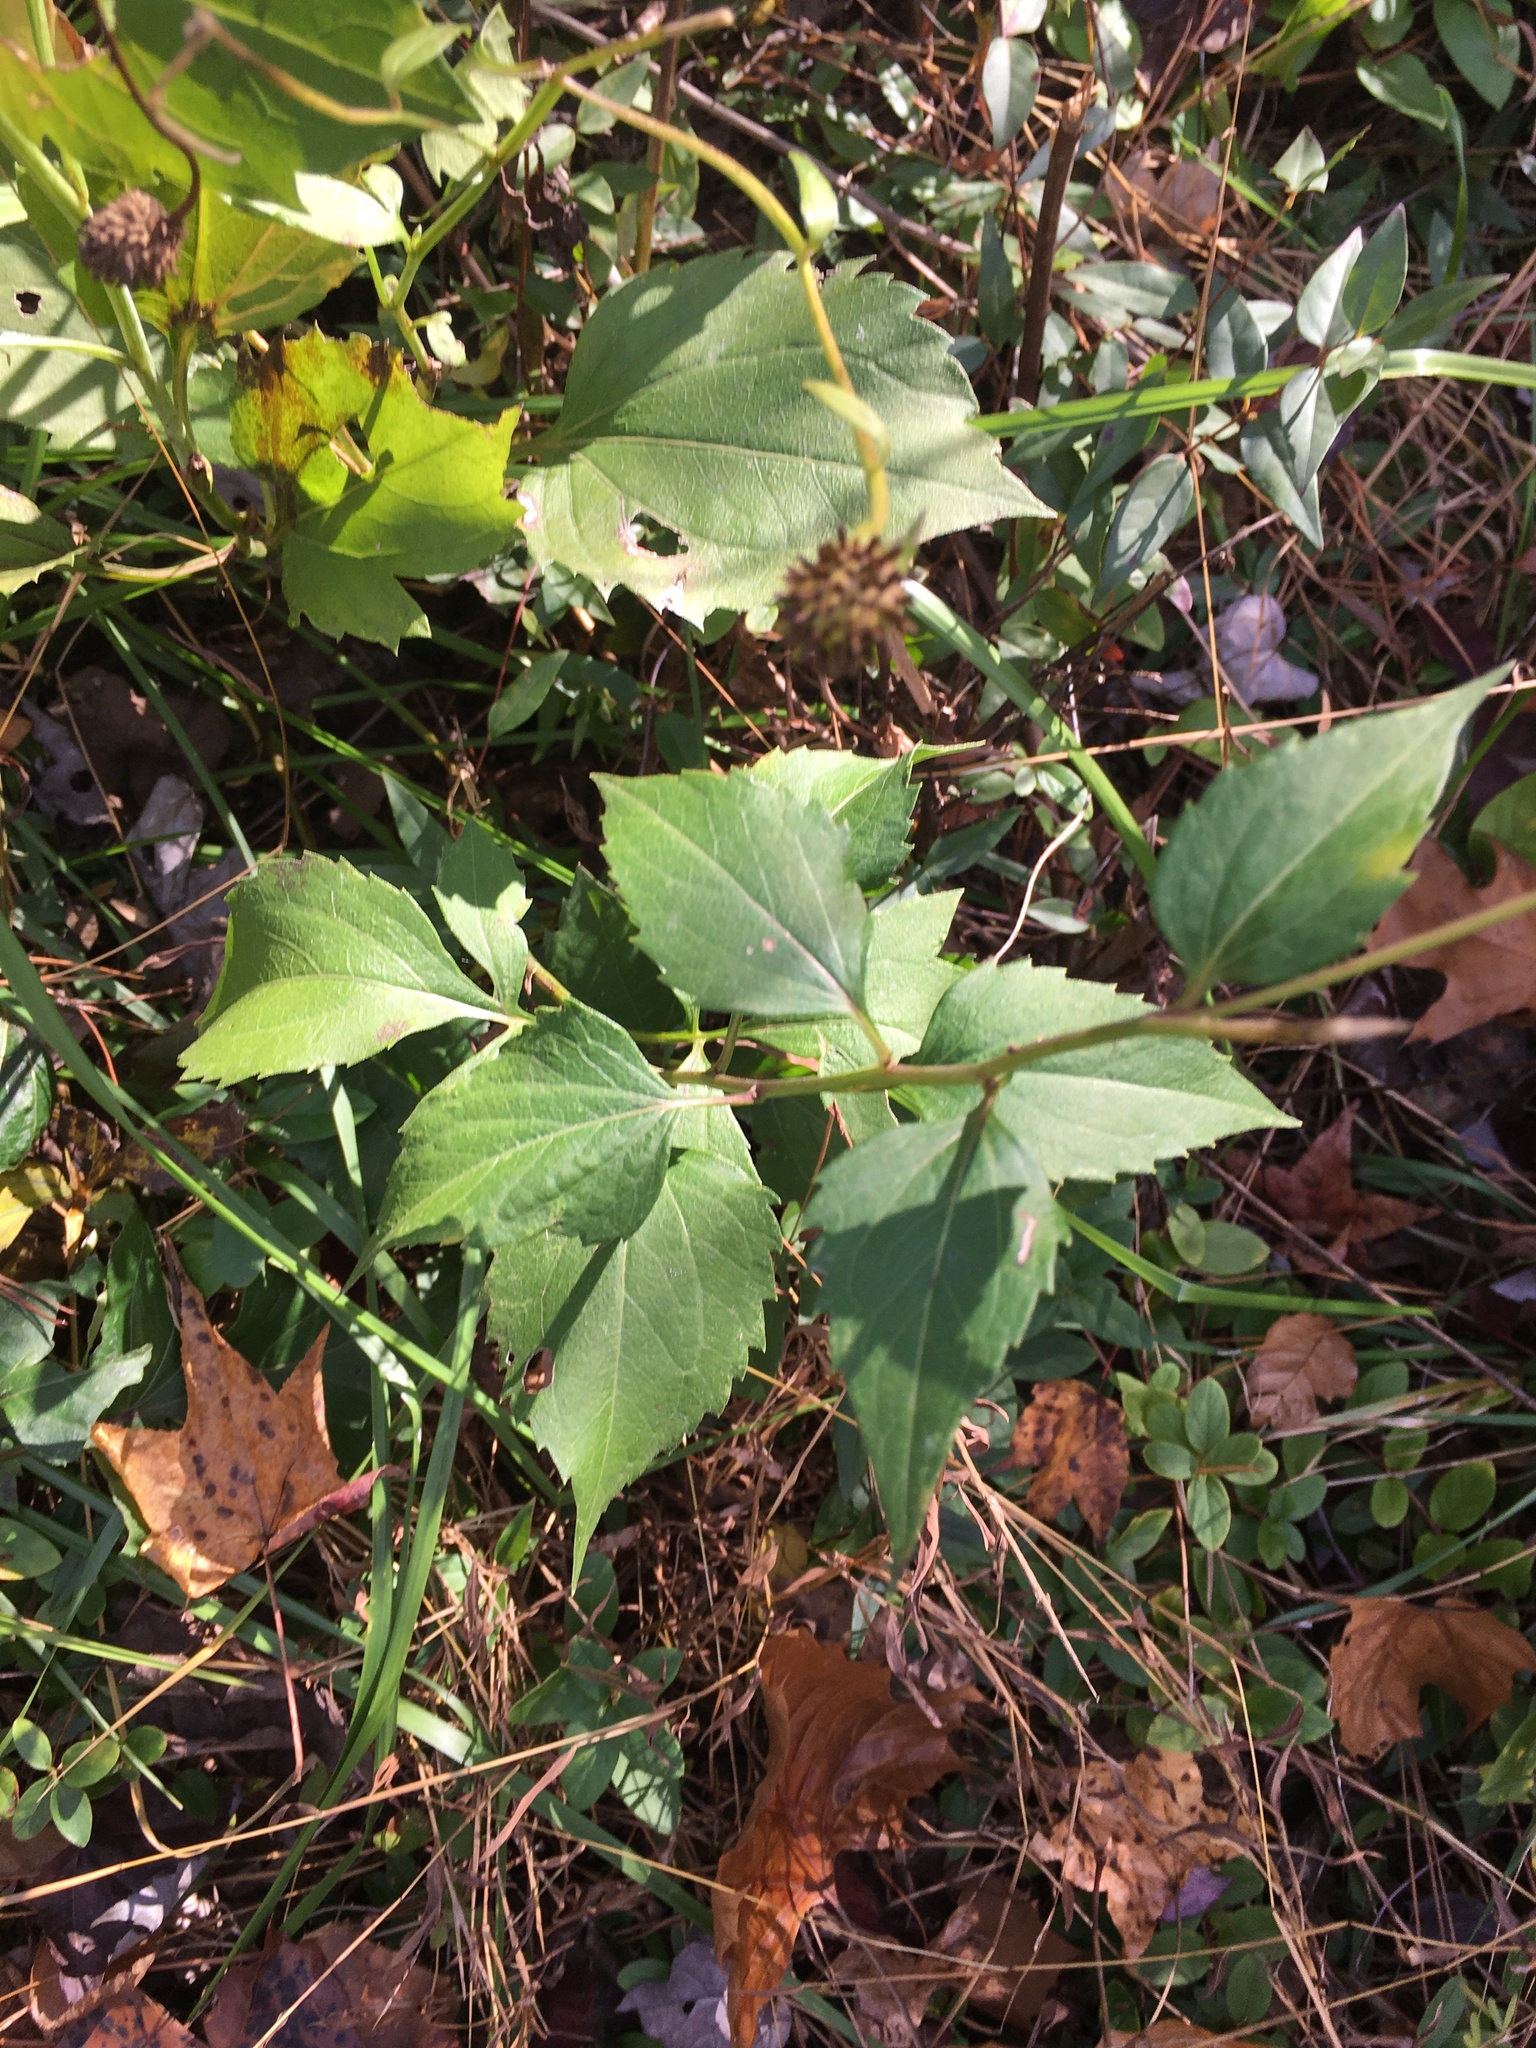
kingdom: Plantae
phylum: Tracheophyta
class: Magnoliopsida
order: Asterales
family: Asteraceae
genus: Rudbeckia
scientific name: Rudbeckia laciniata
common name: Coneflower
